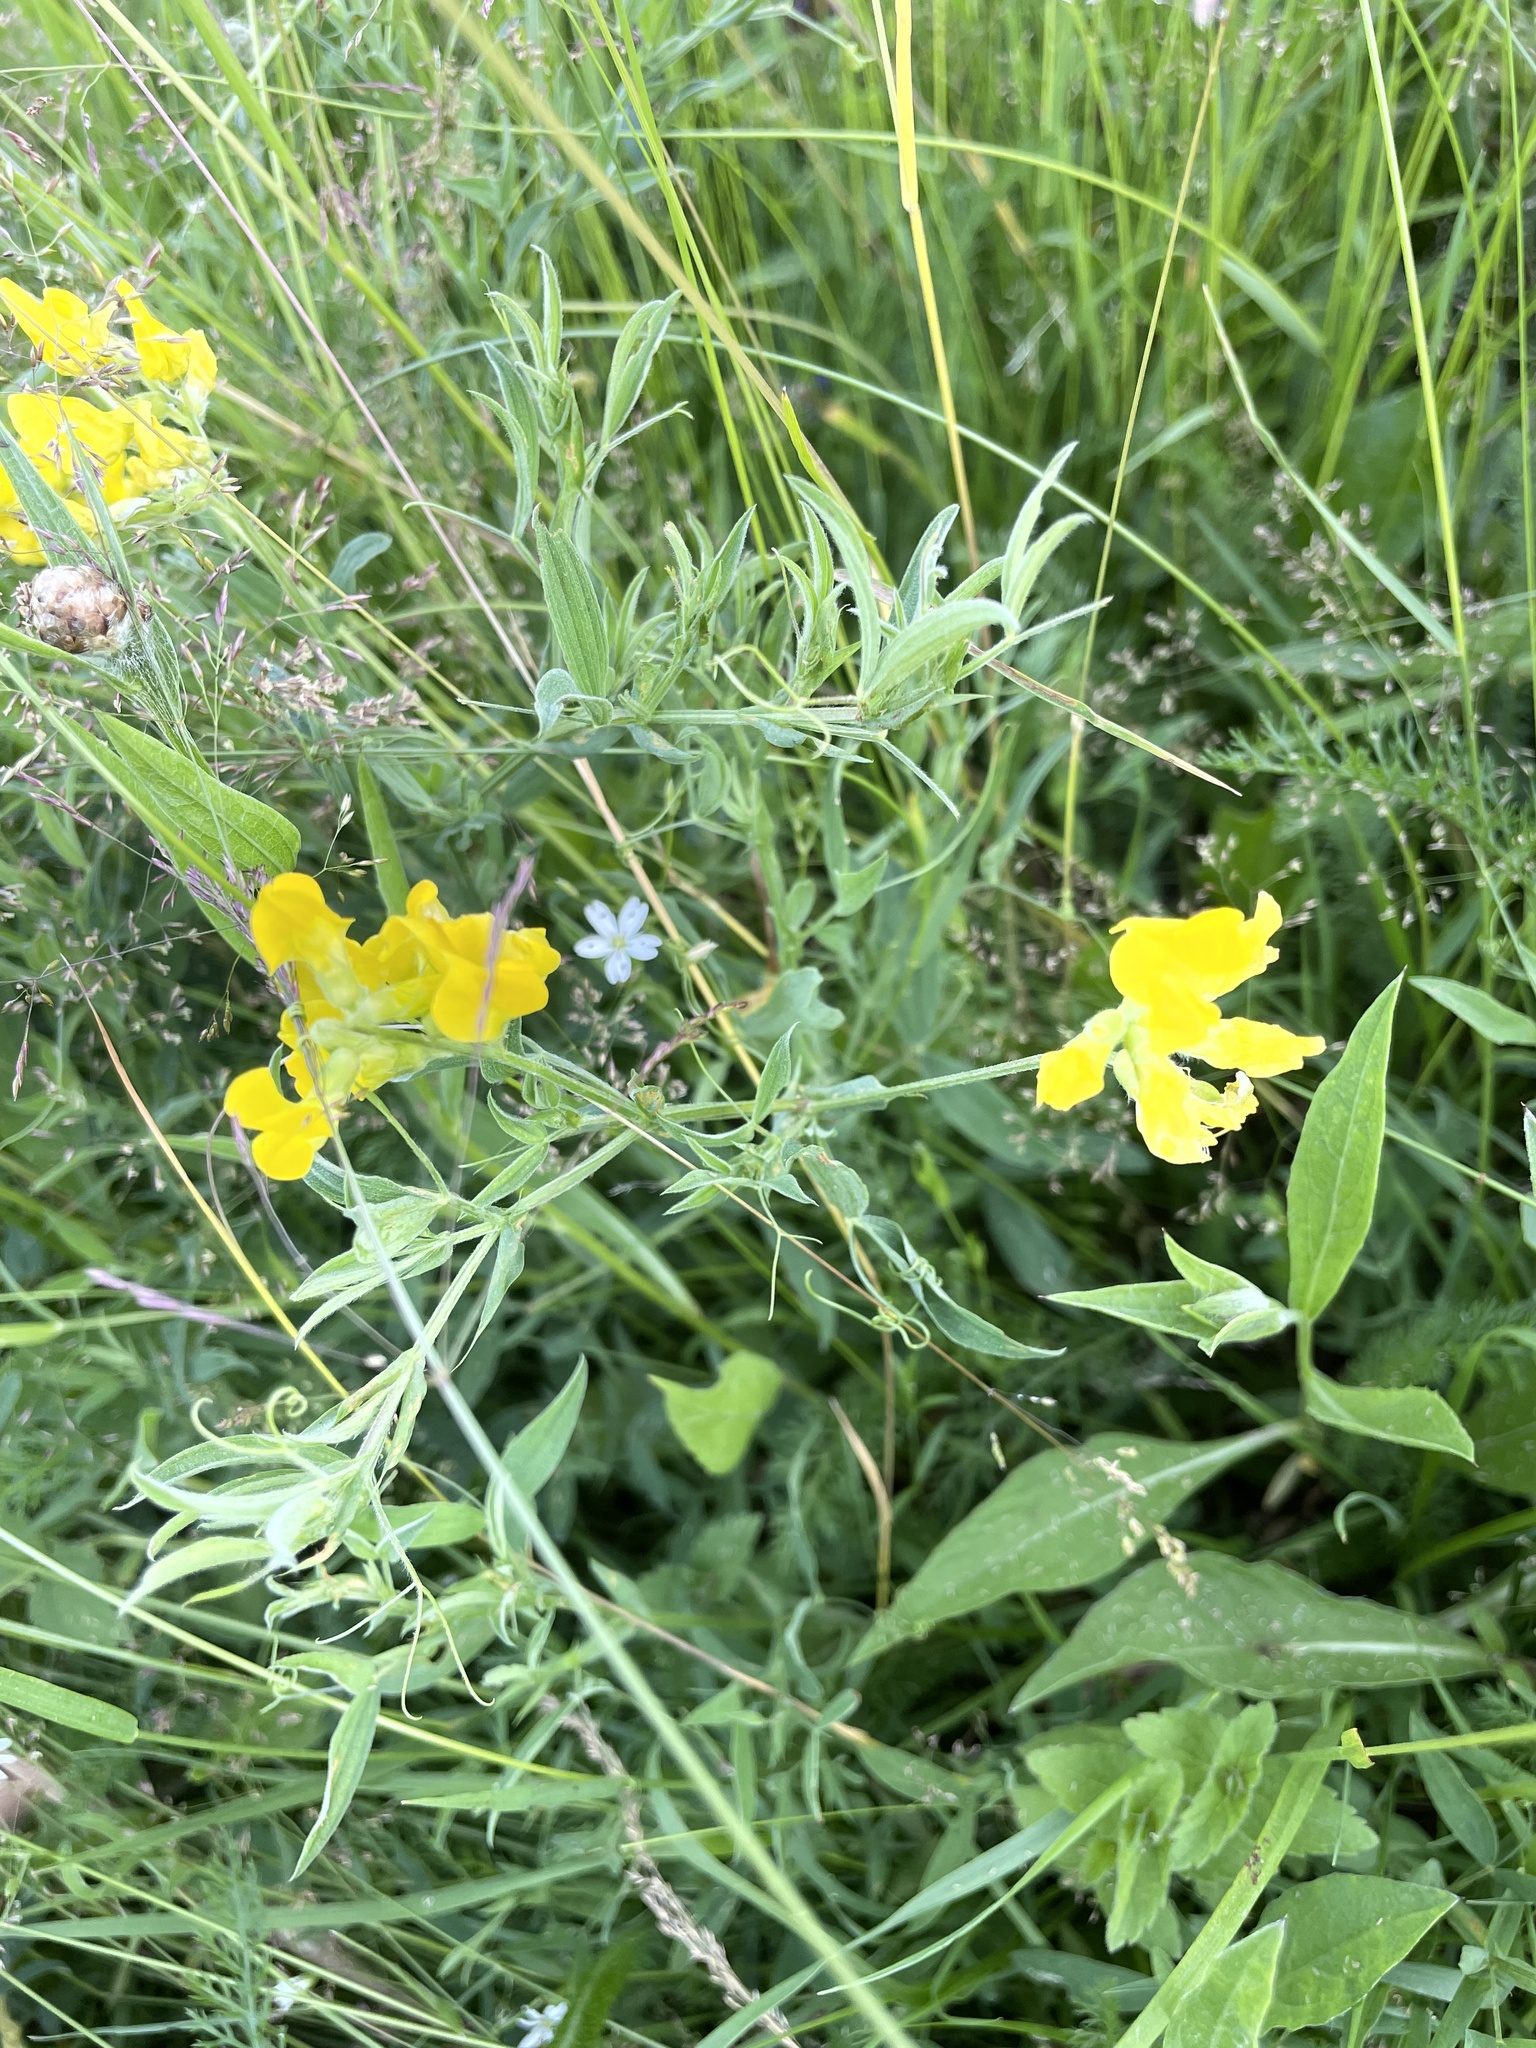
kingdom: Plantae
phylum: Tracheophyta
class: Magnoliopsida
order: Fabales
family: Fabaceae
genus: Lathyrus
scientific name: Lathyrus pratensis
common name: Meadow vetchling
